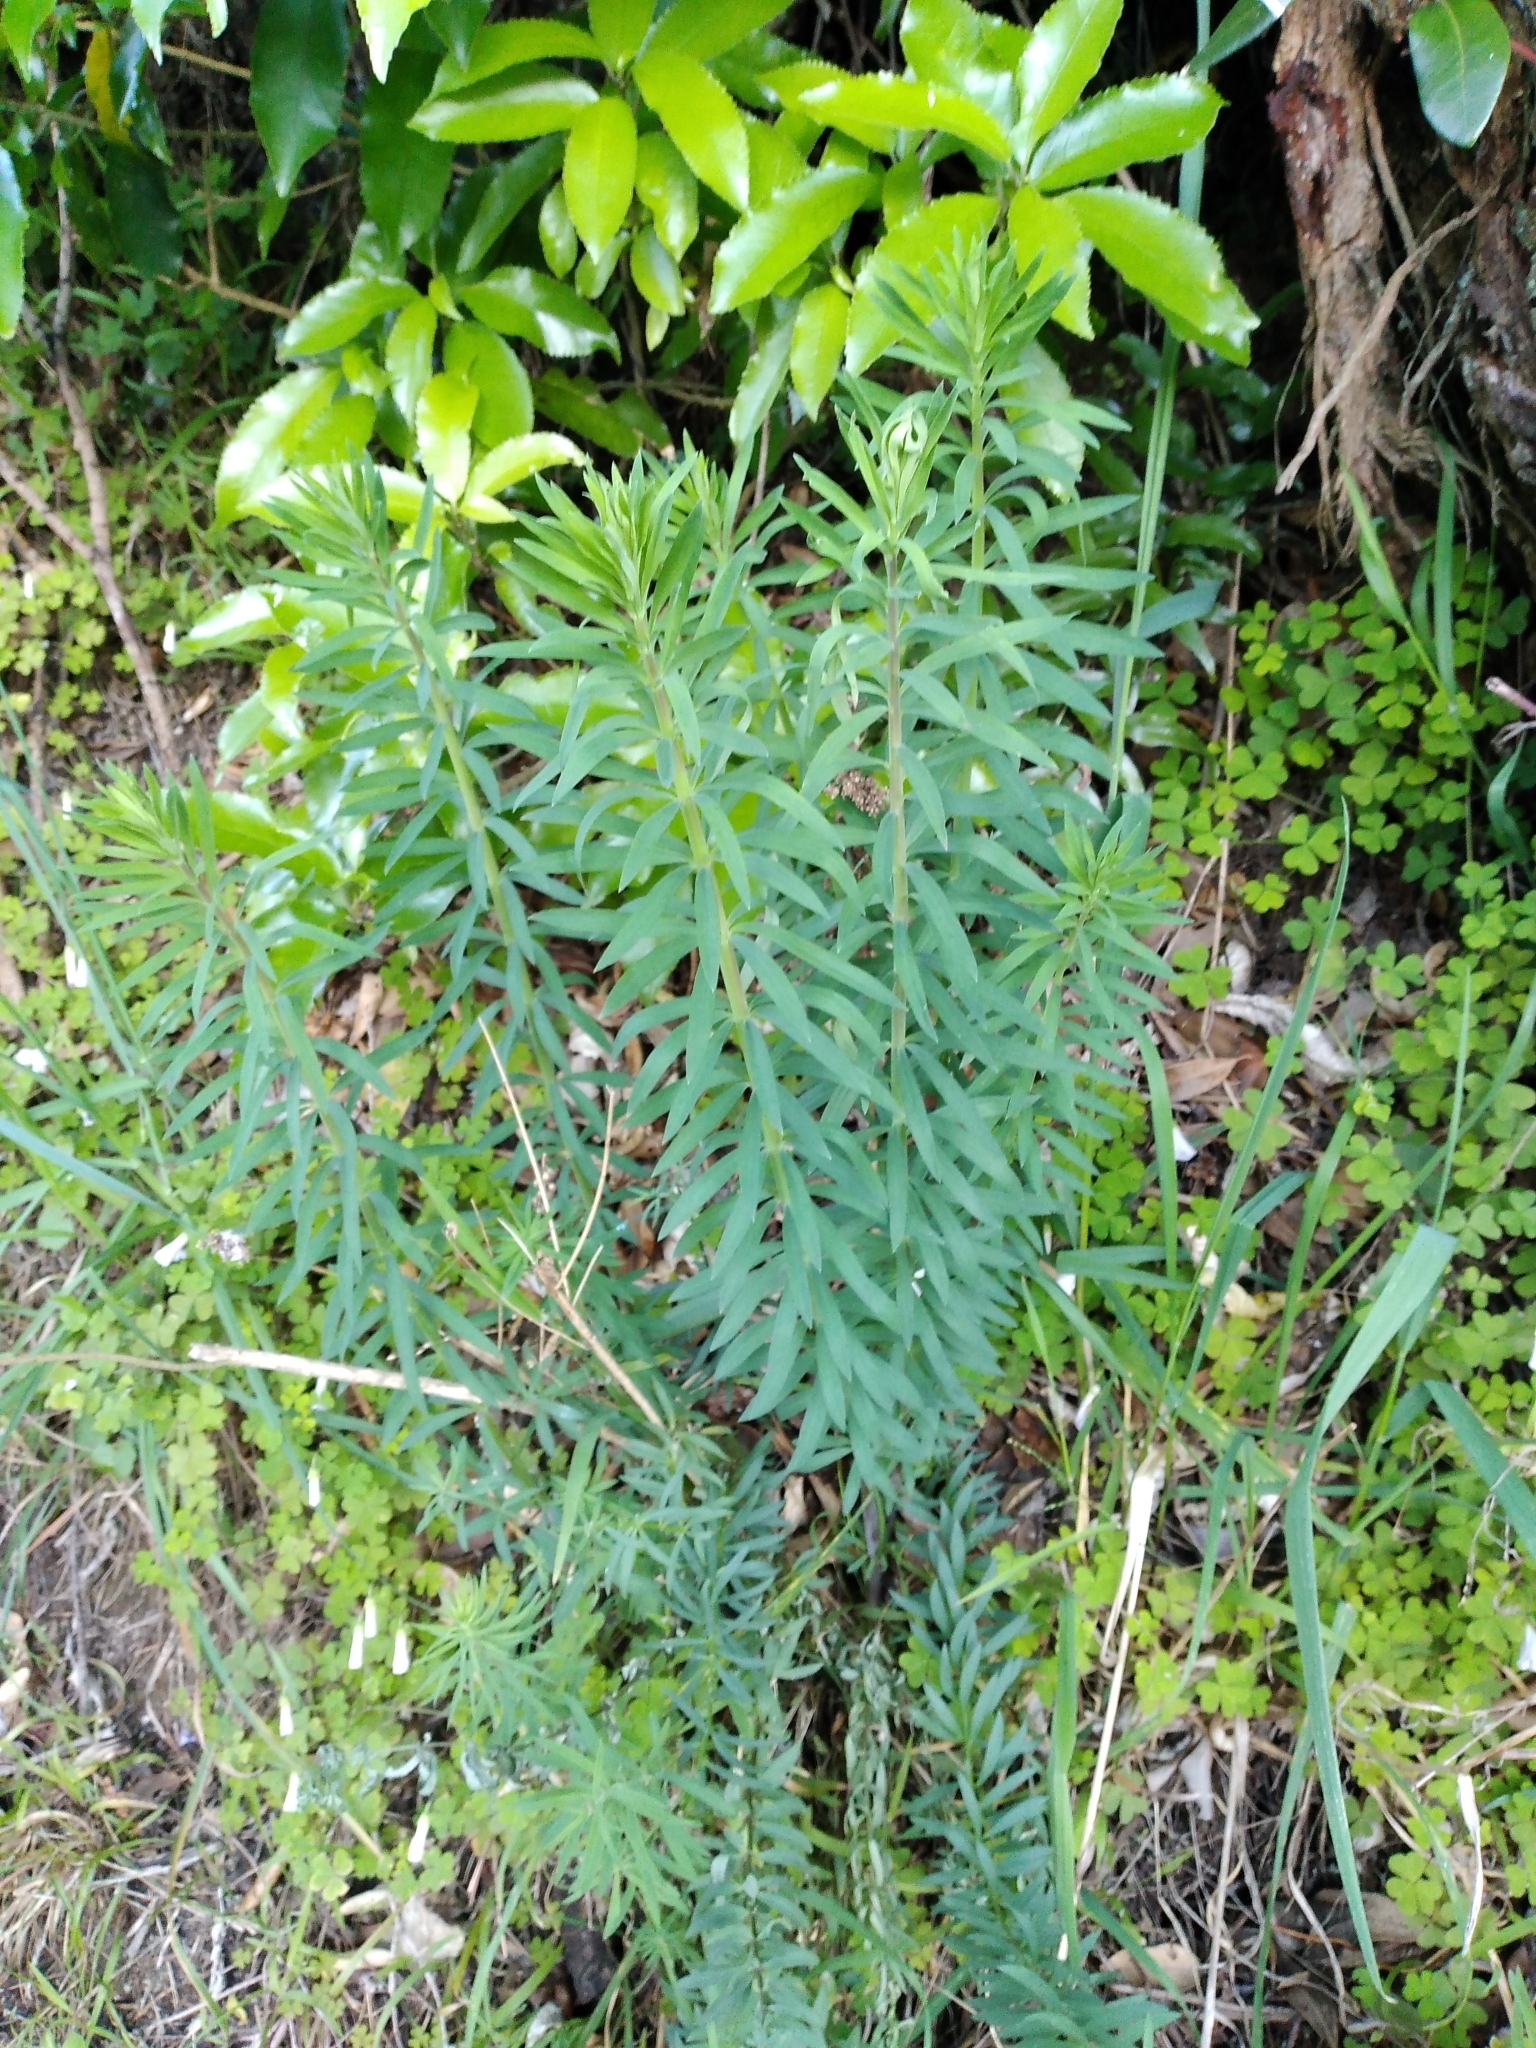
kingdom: Plantae
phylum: Tracheophyta
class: Magnoliopsida
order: Lamiales
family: Plantaginaceae
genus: Linaria
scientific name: Linaria purpurea
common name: Purple toadflax
